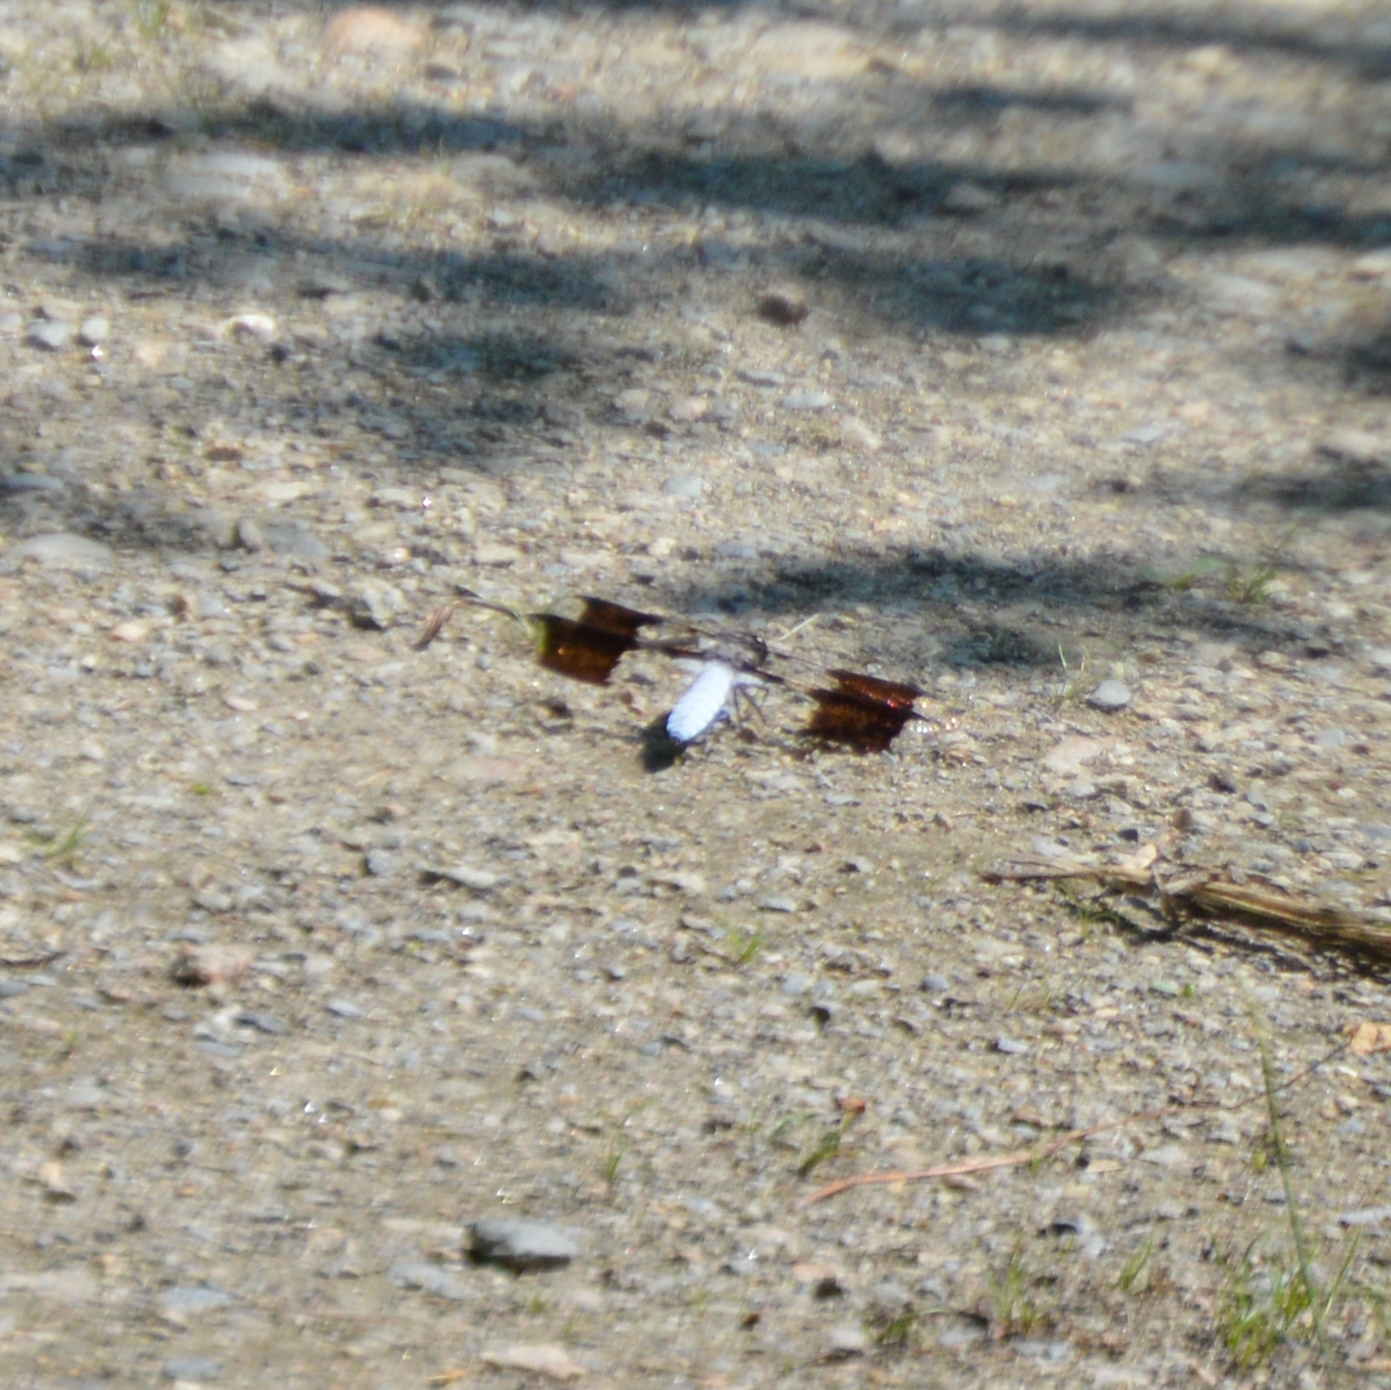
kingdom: Animalia
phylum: Arthropoda
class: Insecta
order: Odonata
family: Libellulidae
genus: Plathemis
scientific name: Plathemis lydia
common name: Common whitetail
